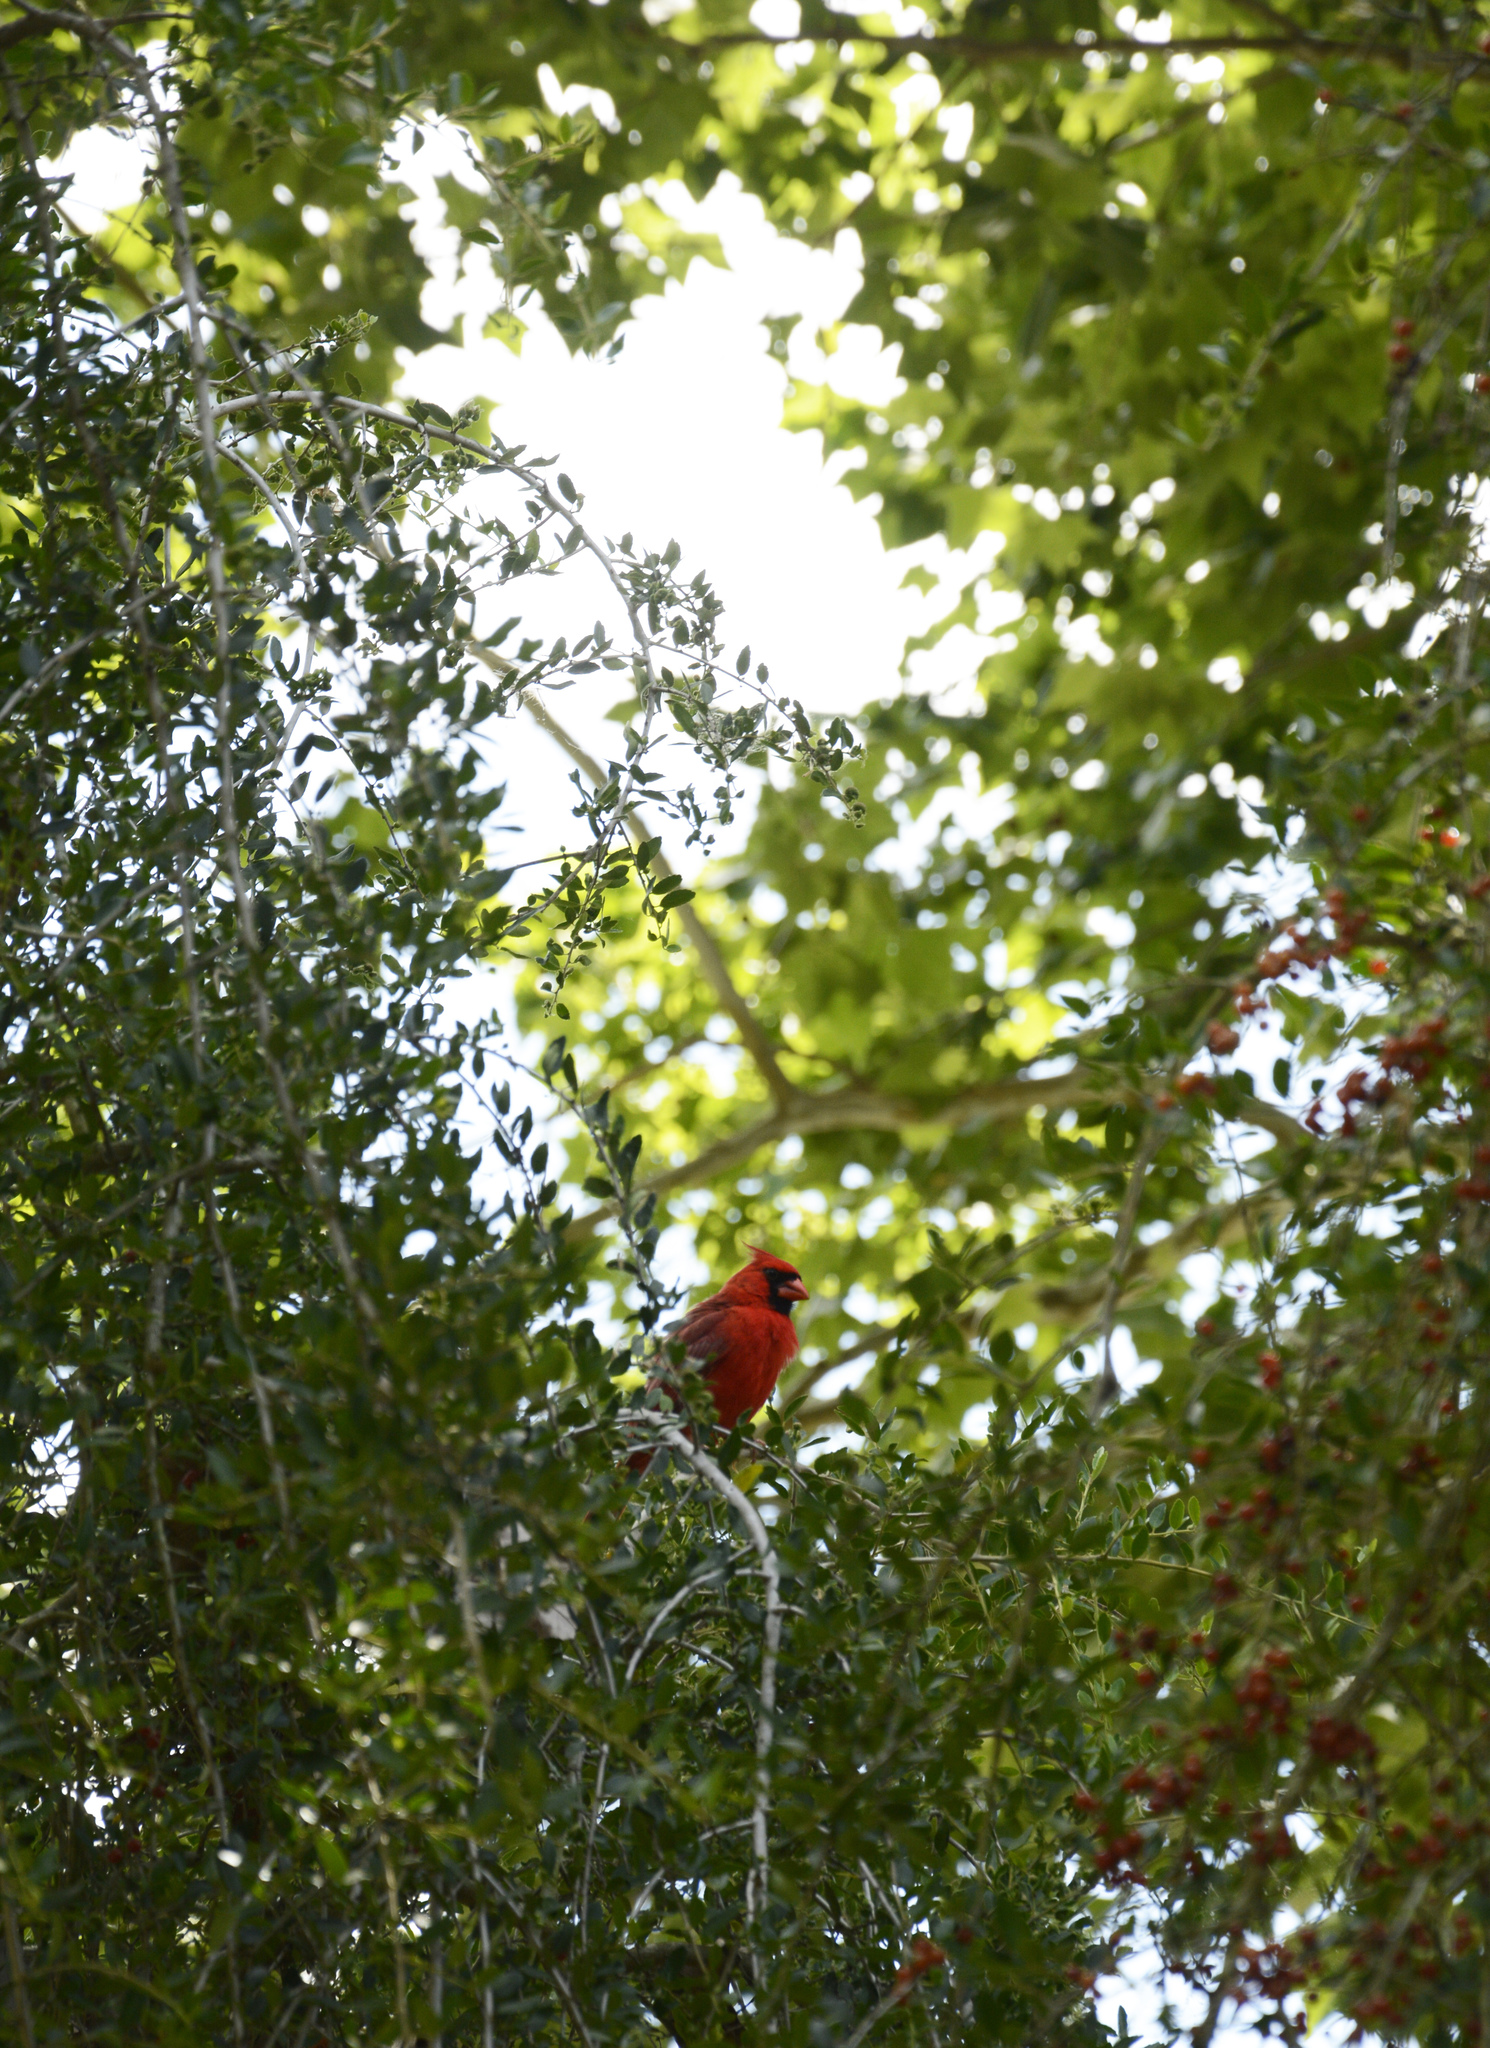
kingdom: Animalia
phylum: Chordata
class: Aves
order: Passeriformes
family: Cardinalidae
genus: Cardinalis
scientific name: Cardinalis cardinalis
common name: Northern cardinal
